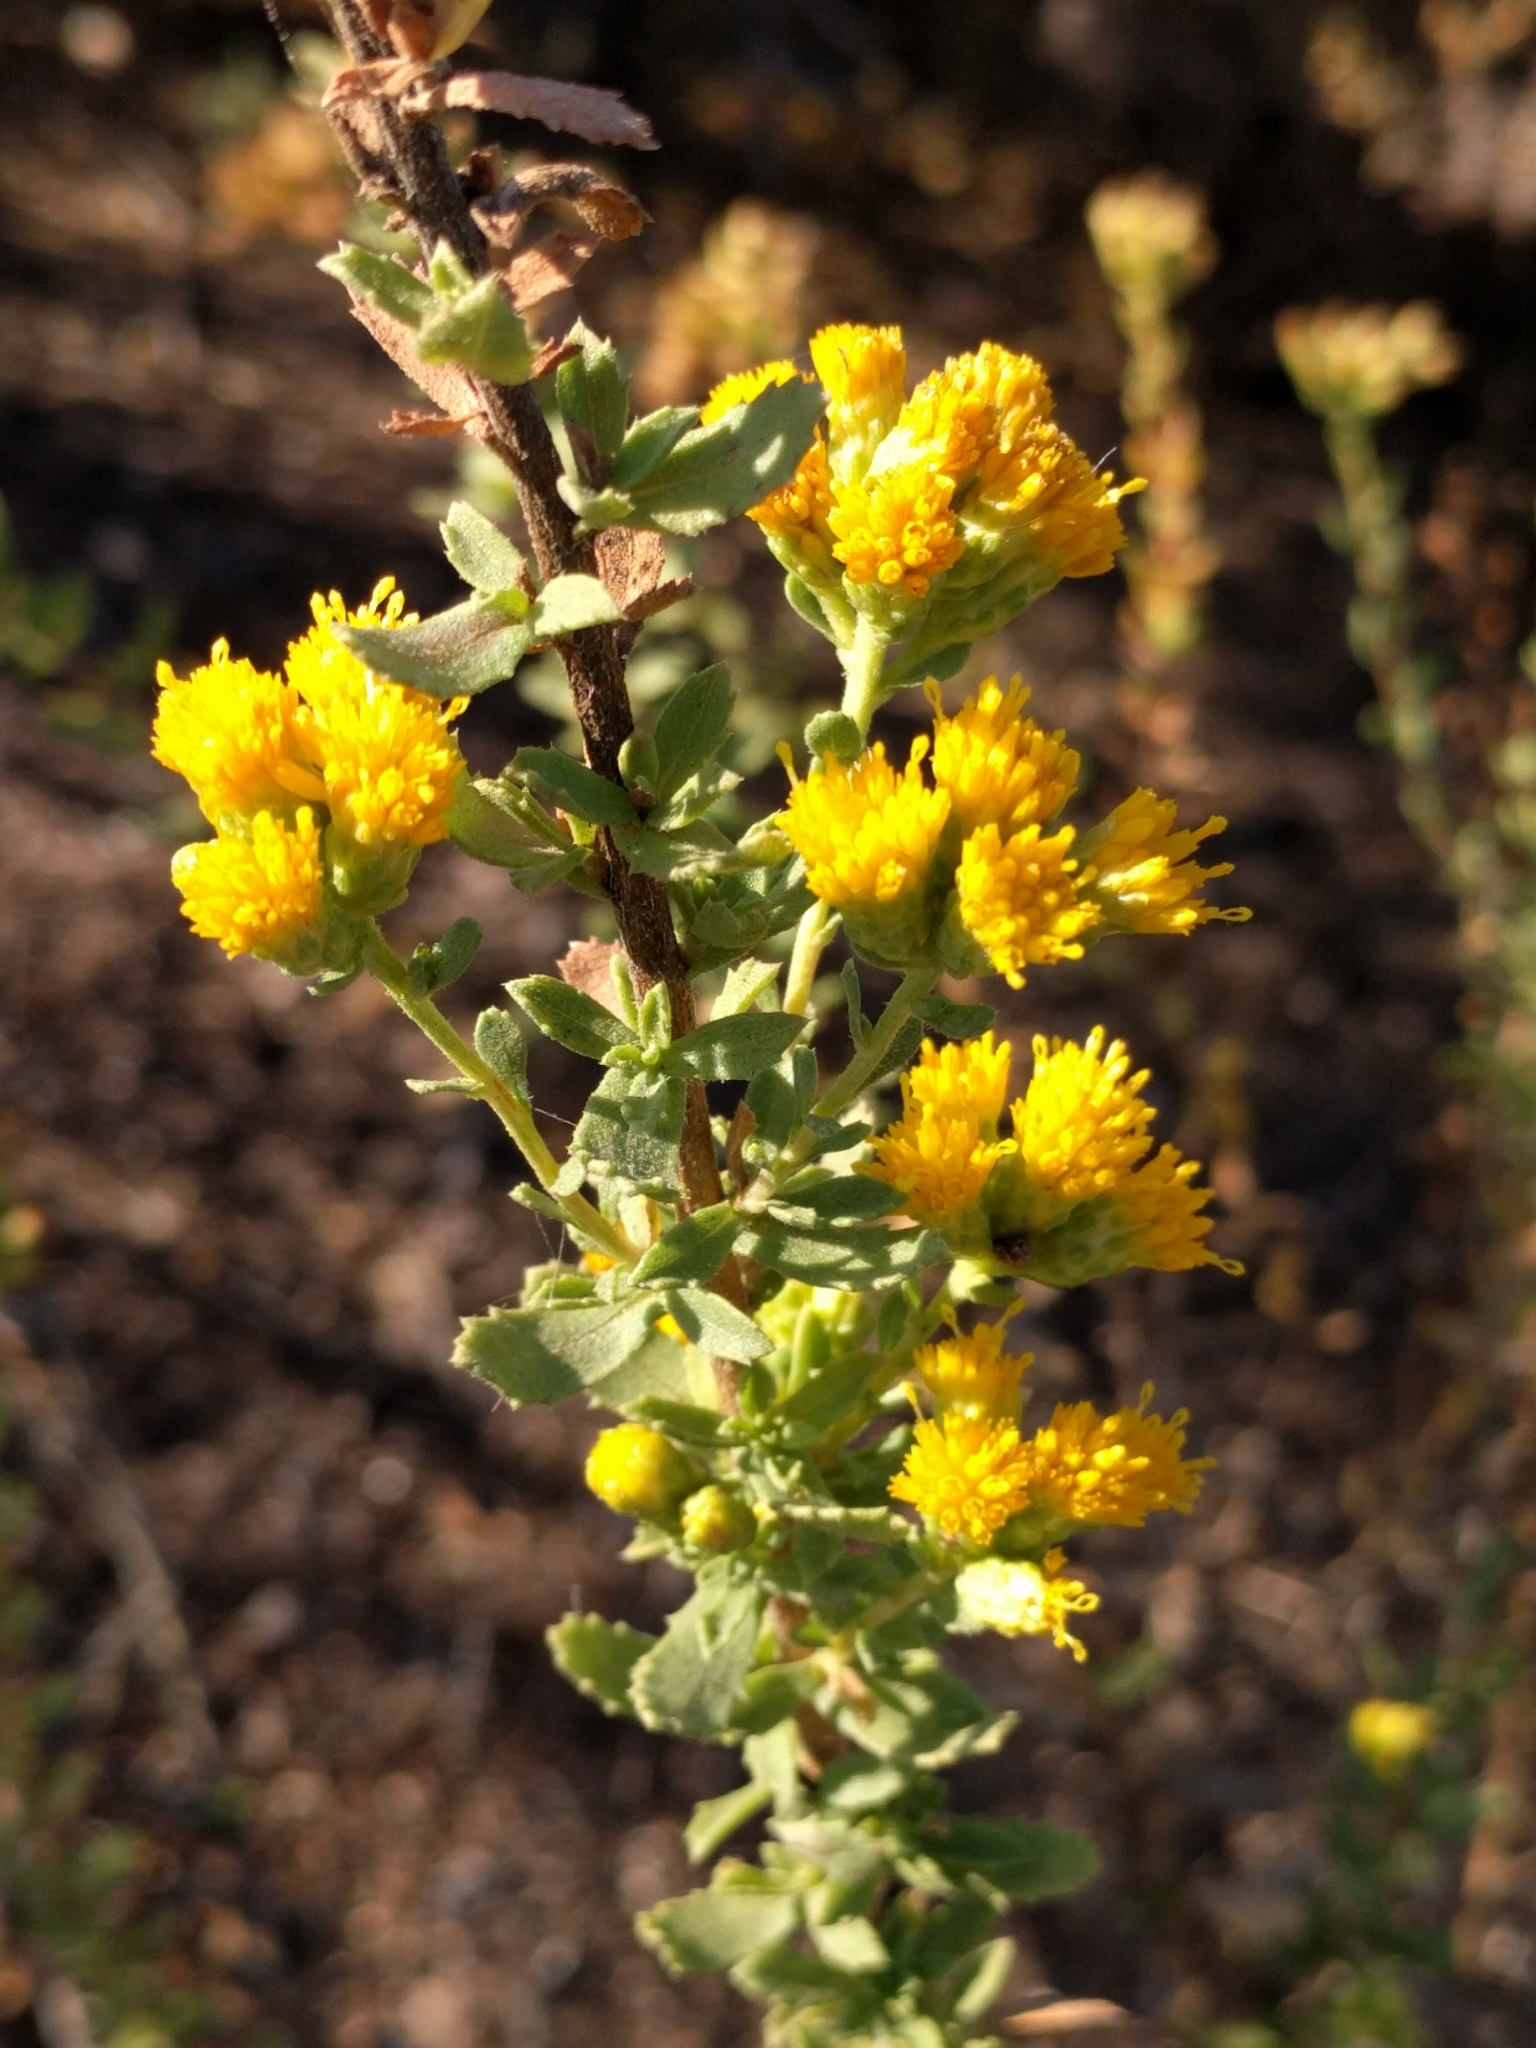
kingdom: Plantae
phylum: Tracheophyta
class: Magnoliopsida
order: Asterales
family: Asteraceae
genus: Isocoma
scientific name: Isocoma menziesii
